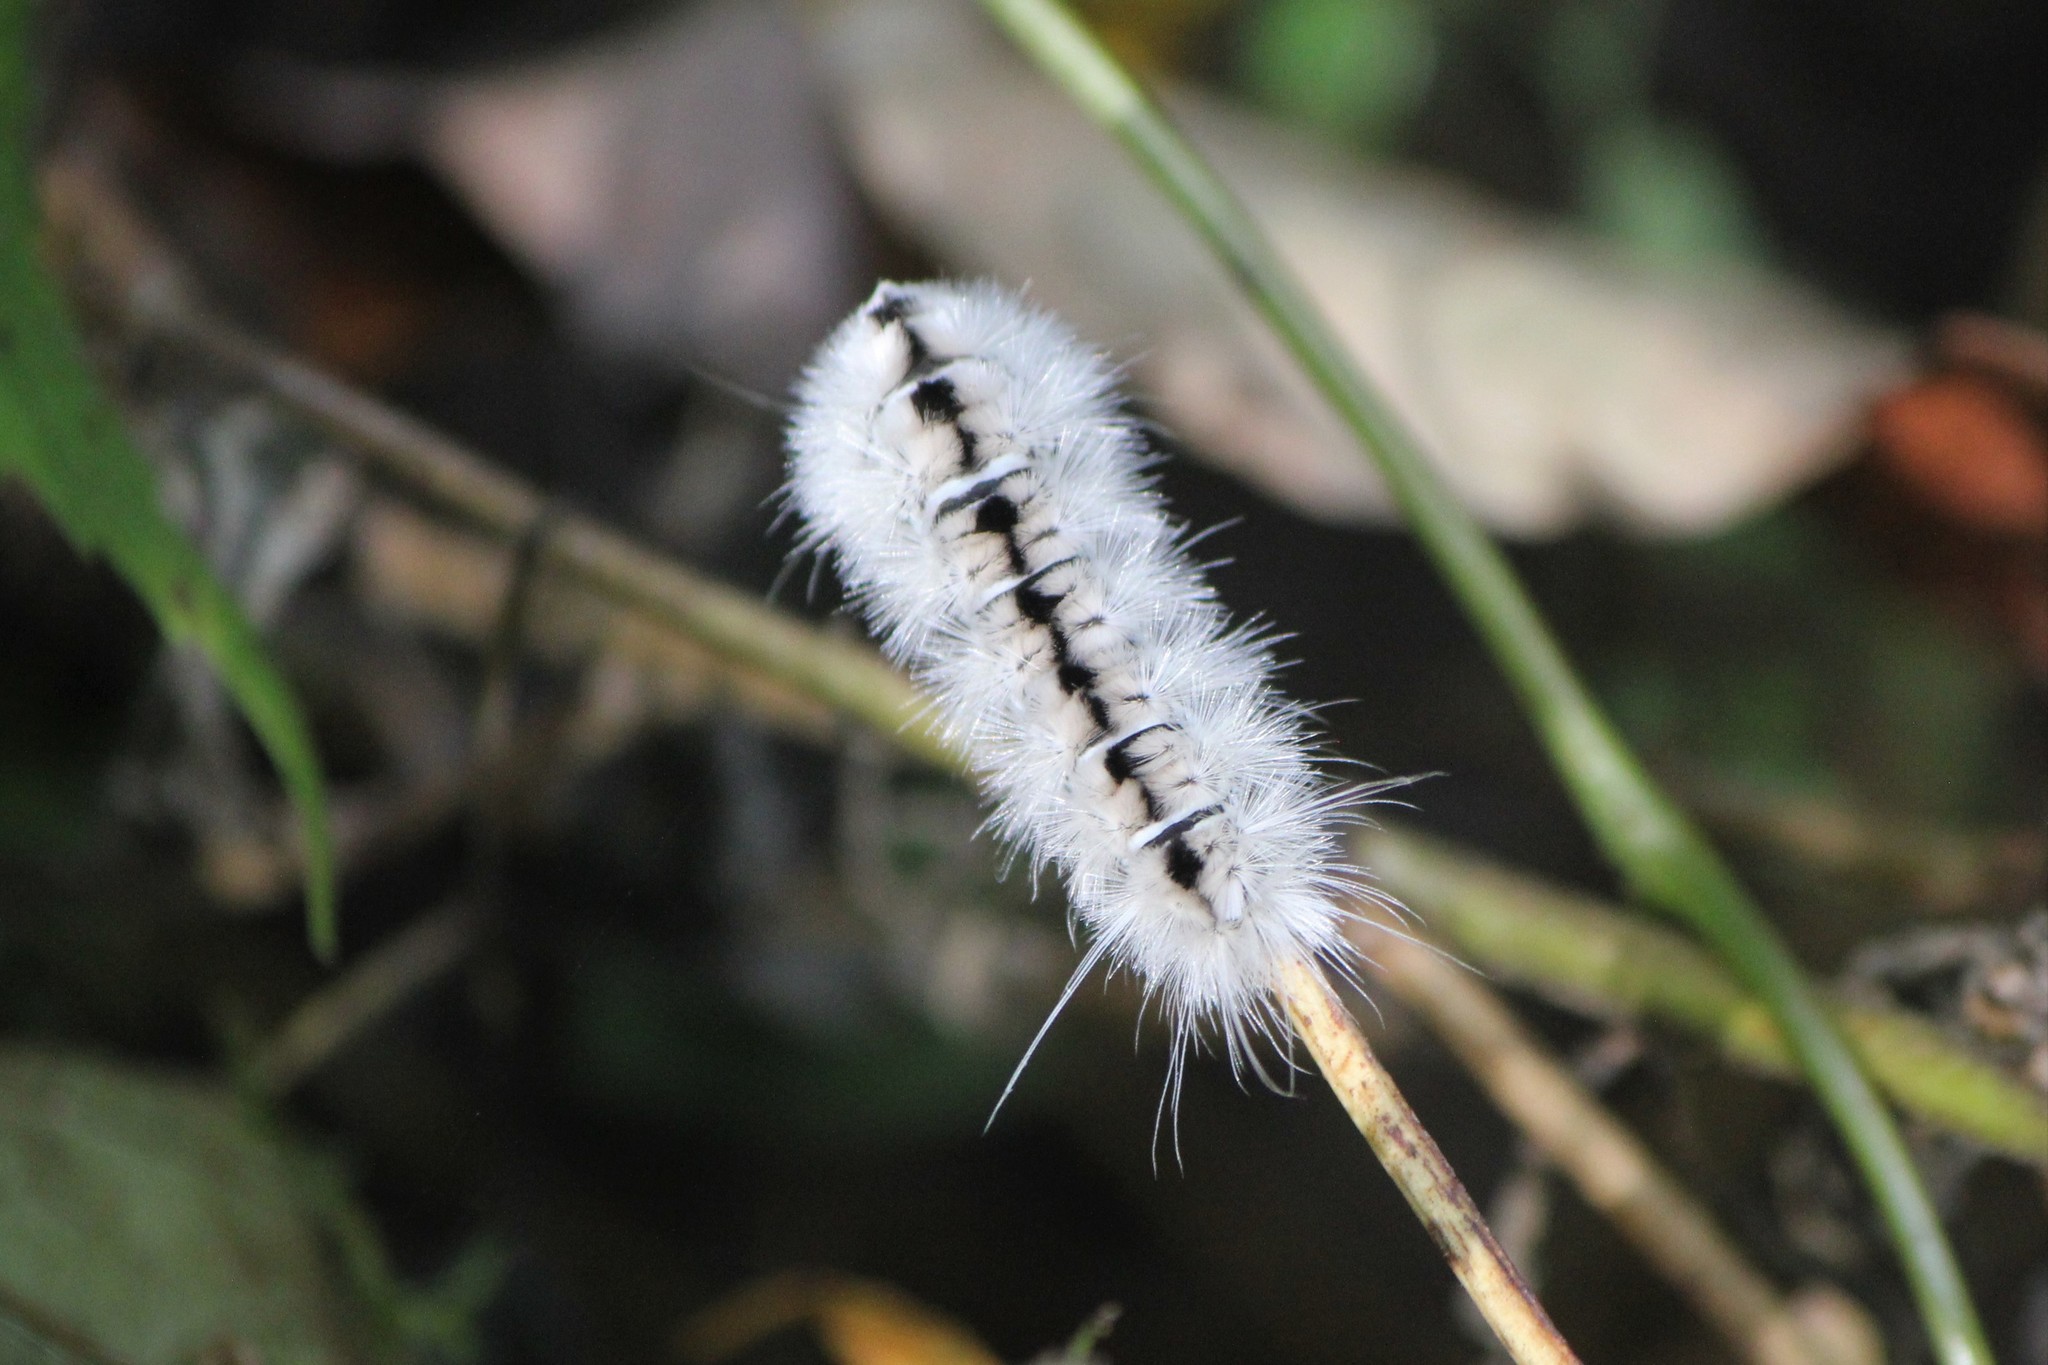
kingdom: Animalia
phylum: Arthropoda
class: Insecta
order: Lepidoptera
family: Erebidae
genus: Lophocampa
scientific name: Lophocampa caryae
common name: Hickory tussock moth
